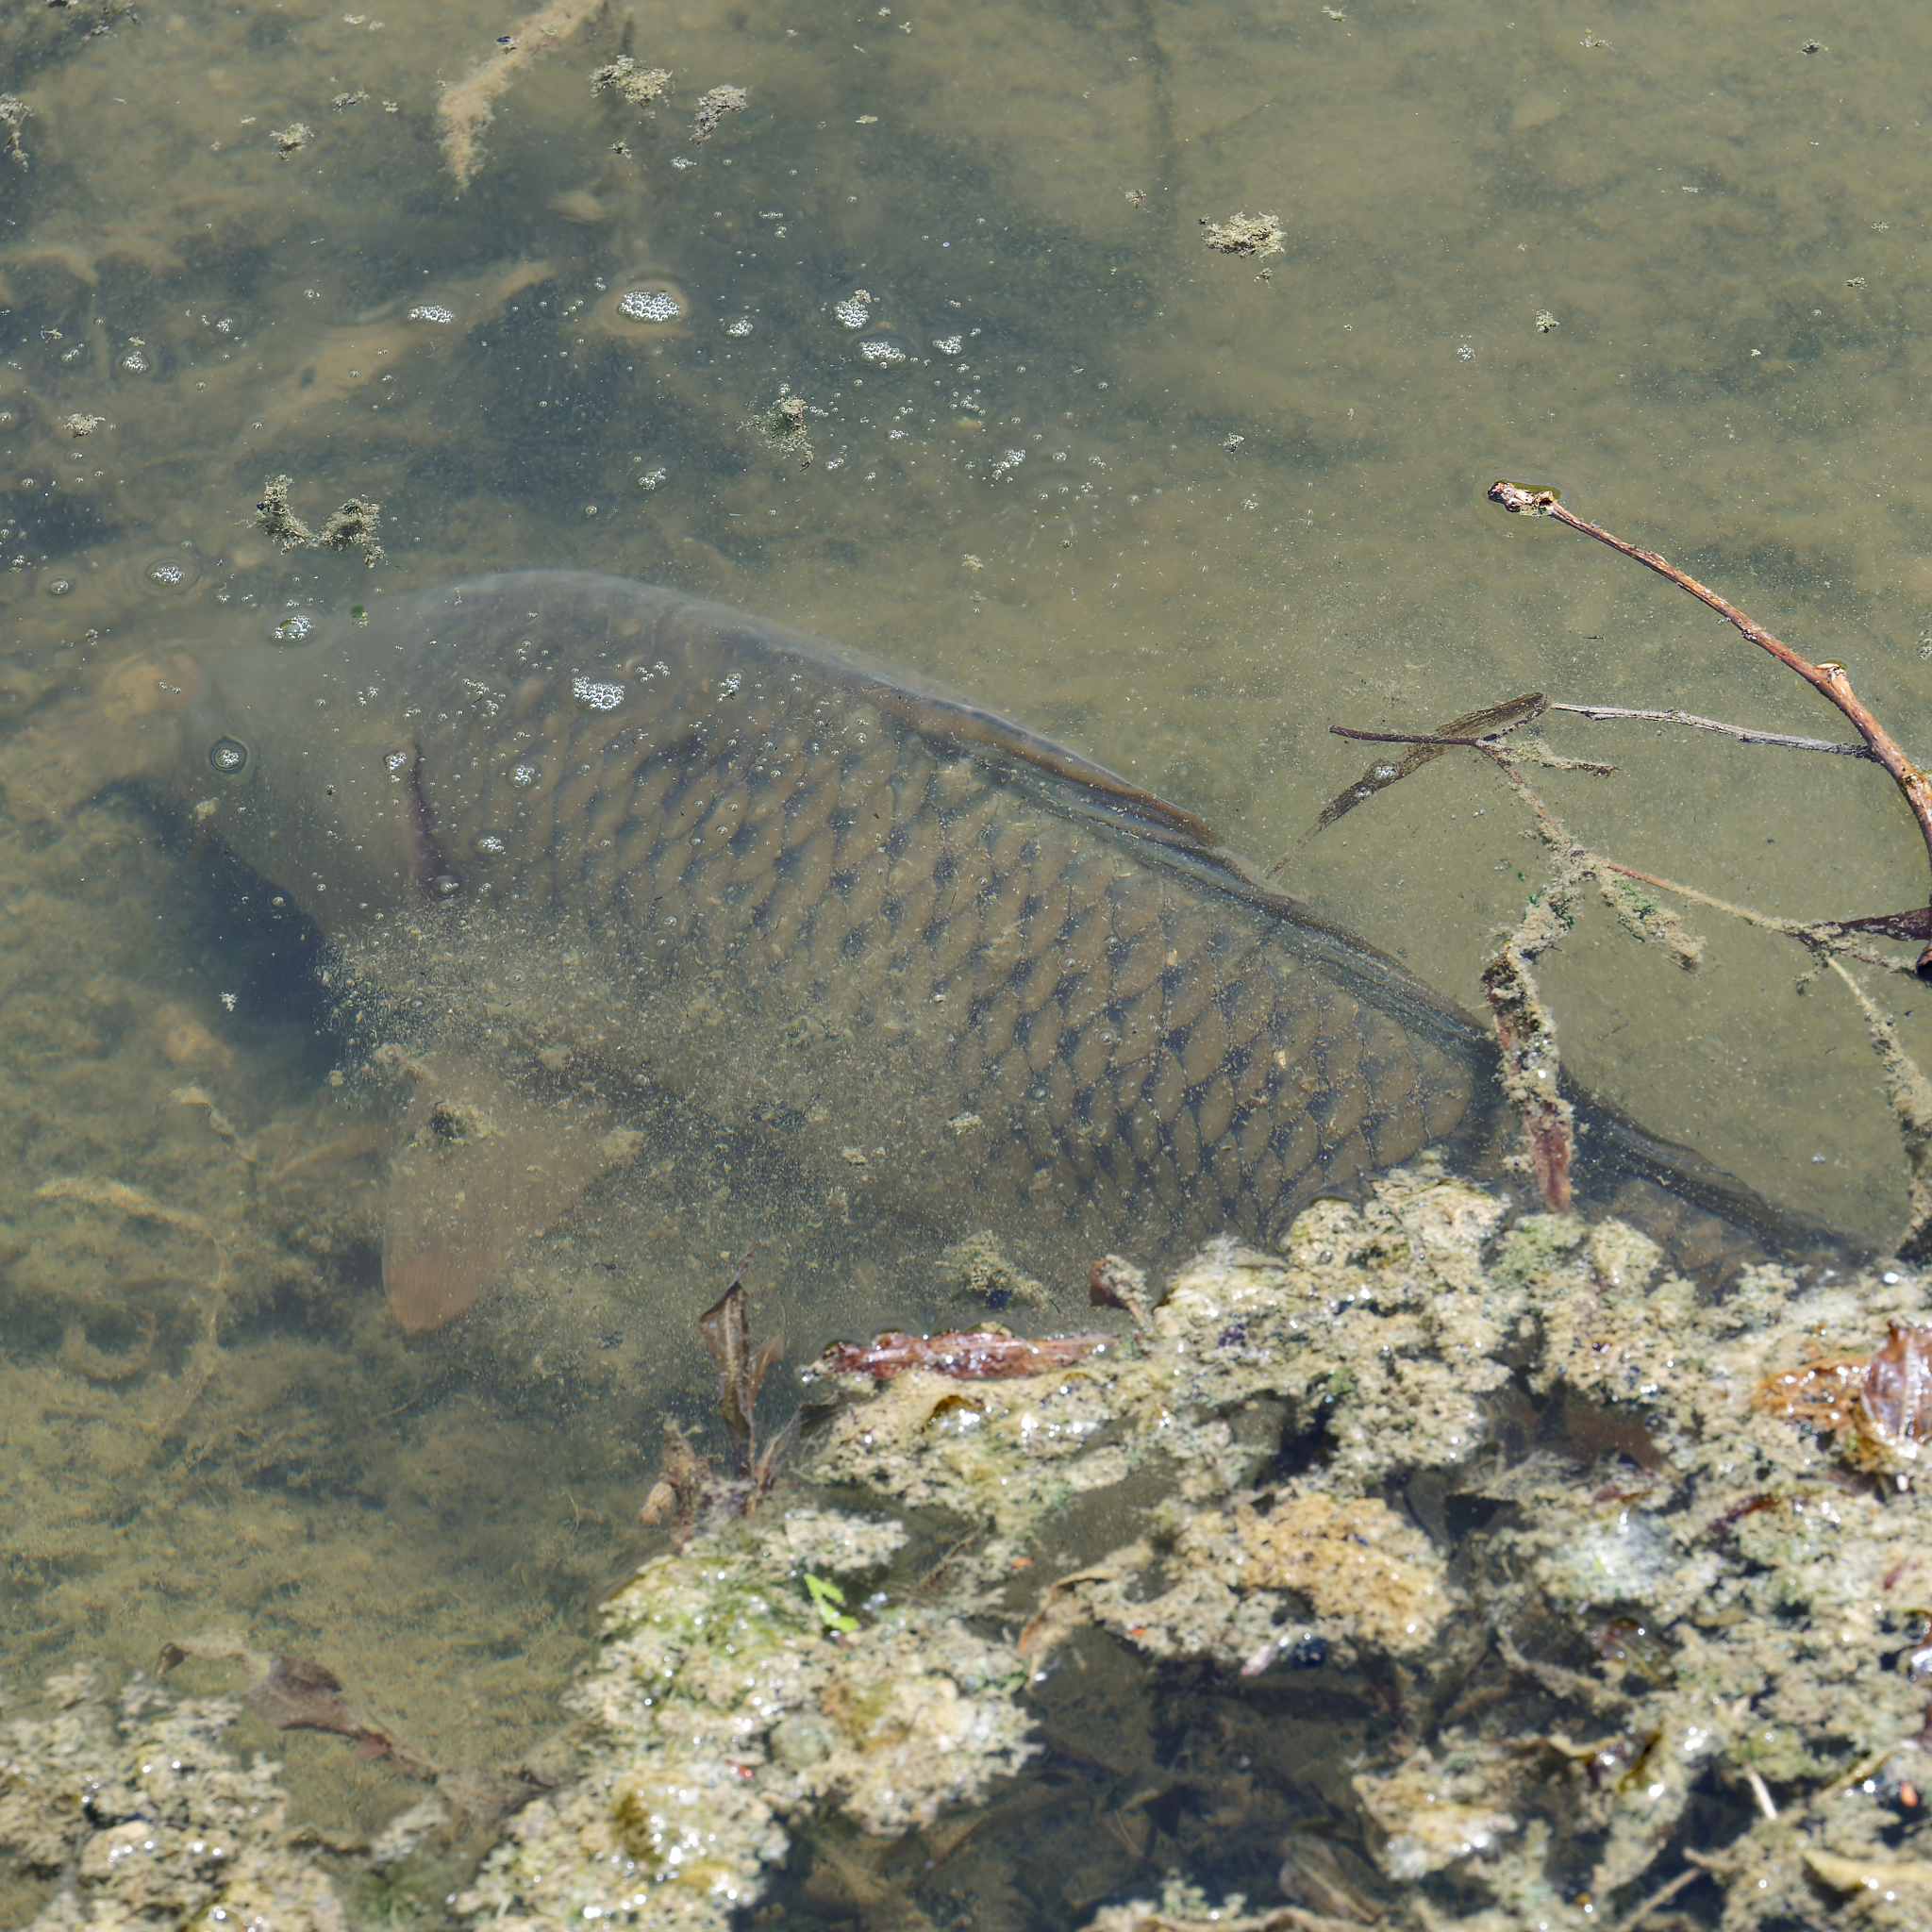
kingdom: Animalia
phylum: Chordata
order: Cypriniformes
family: Cyprinidae
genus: Cyprinus
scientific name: Cyprinus carpio
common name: Common carp
